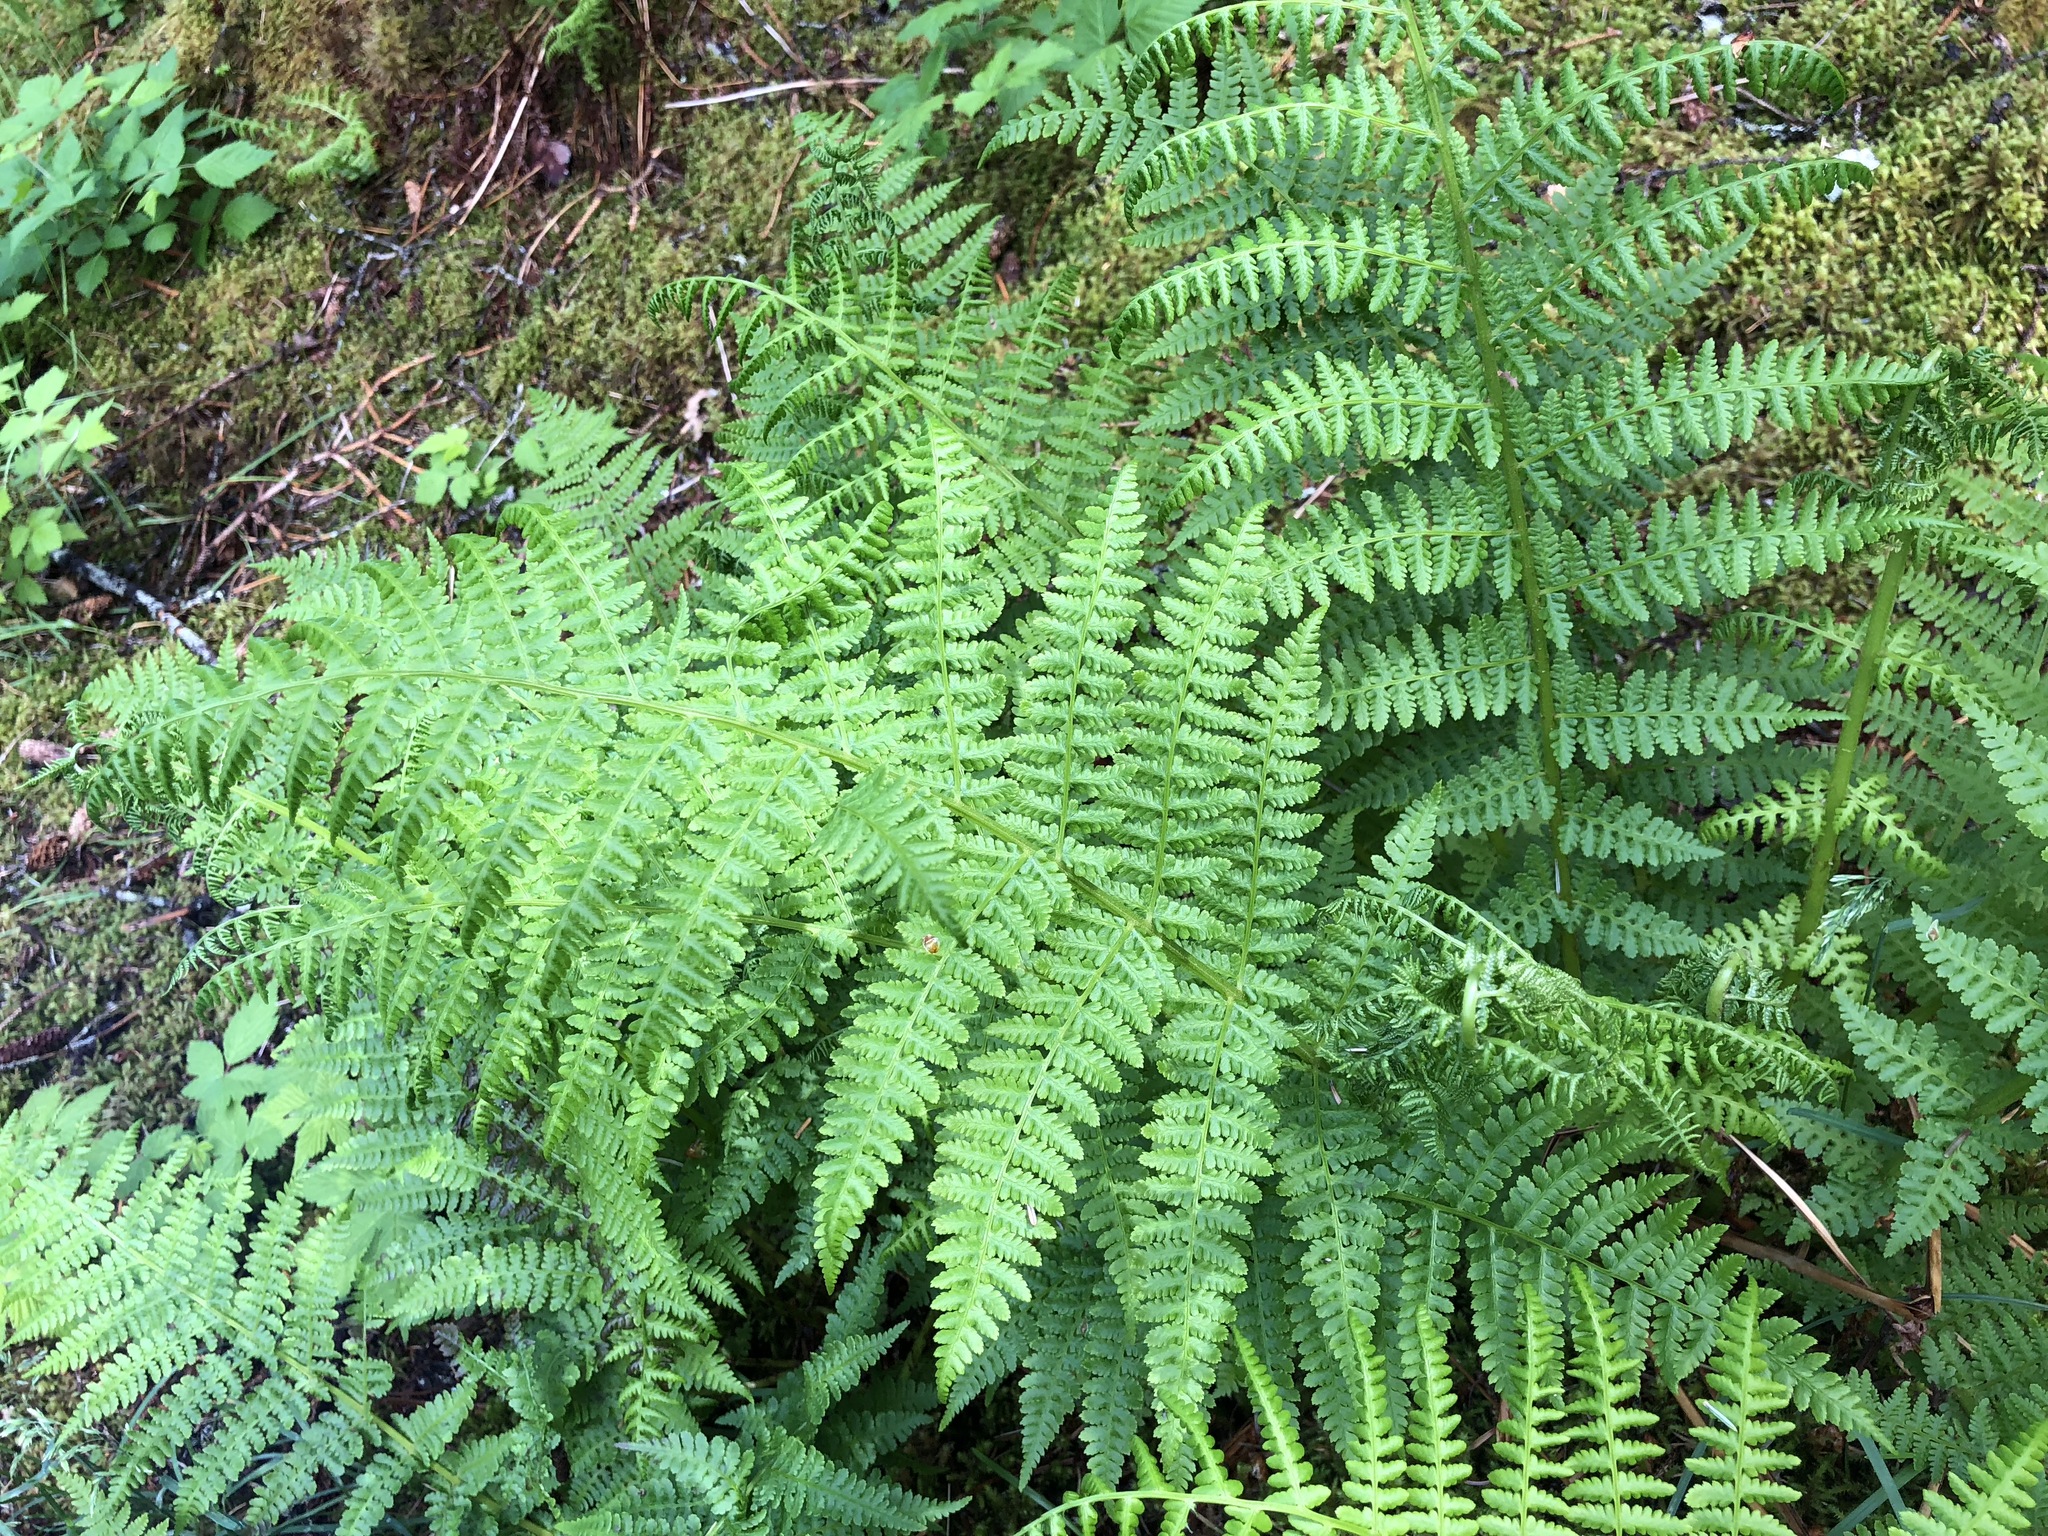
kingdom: Plantae
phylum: Tracheophyta
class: Polypodiopsida
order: Polypodiales
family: Athyriaceae
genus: Athyrium
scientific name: Athyrium filix-femina
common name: Lady fern
